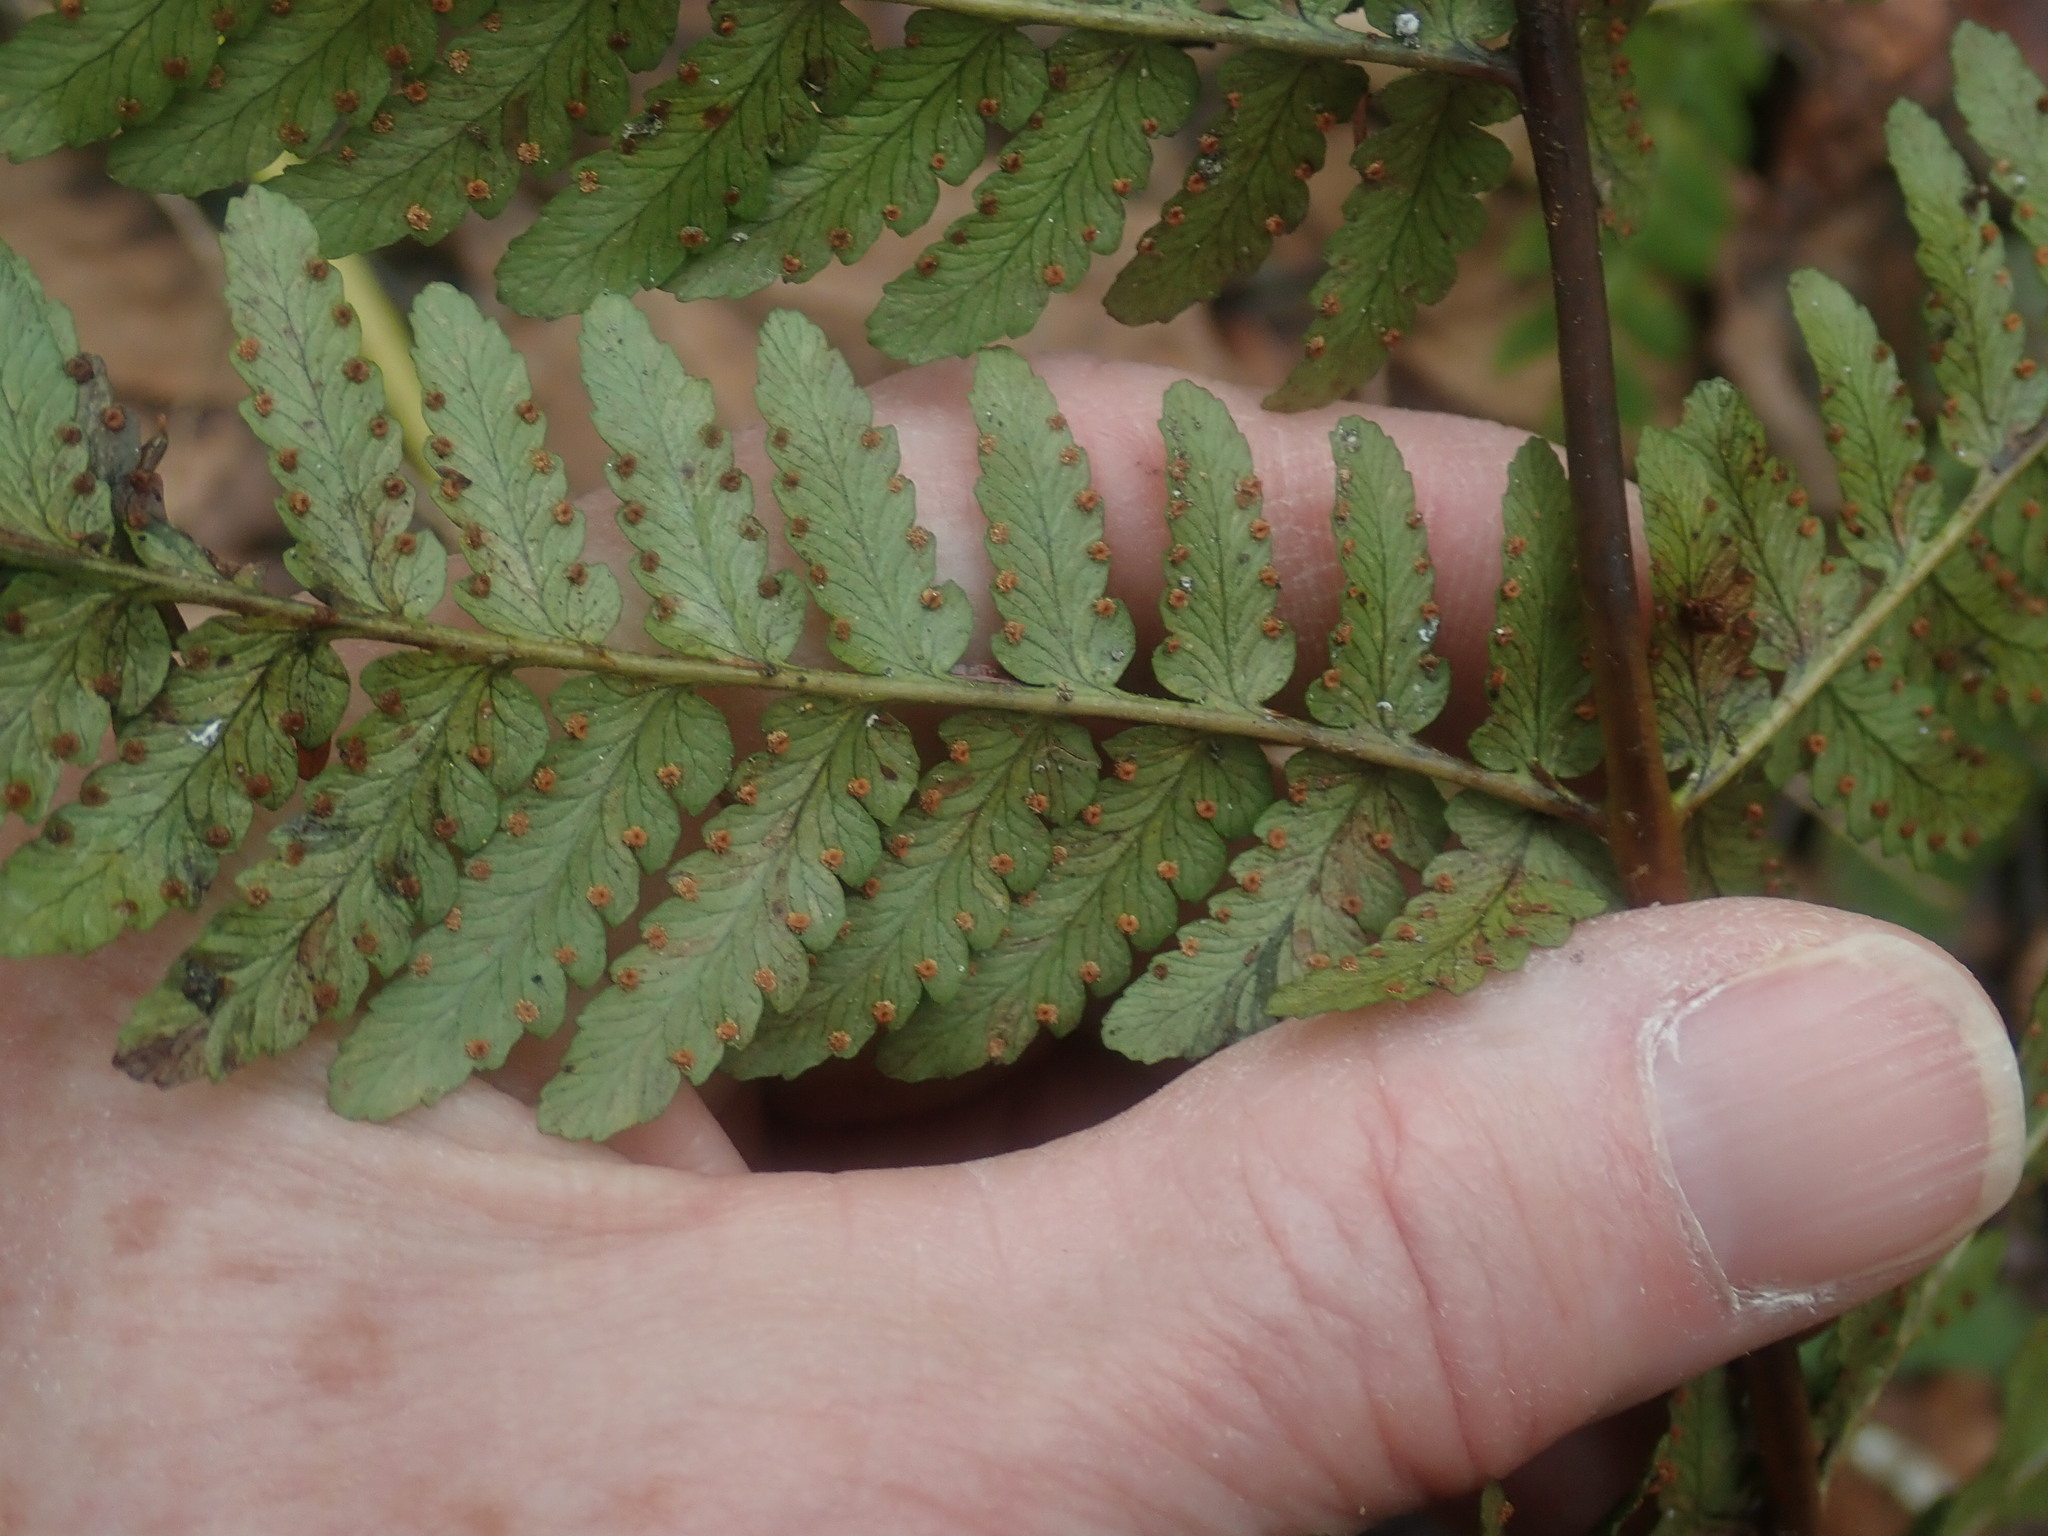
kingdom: Plantae
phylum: Tracheophyta
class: Polypodiopsida
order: Polypodiales
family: Dryopteridaceae
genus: Dryopteris
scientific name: Dryopteris marginalis
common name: Marginal wood fern
